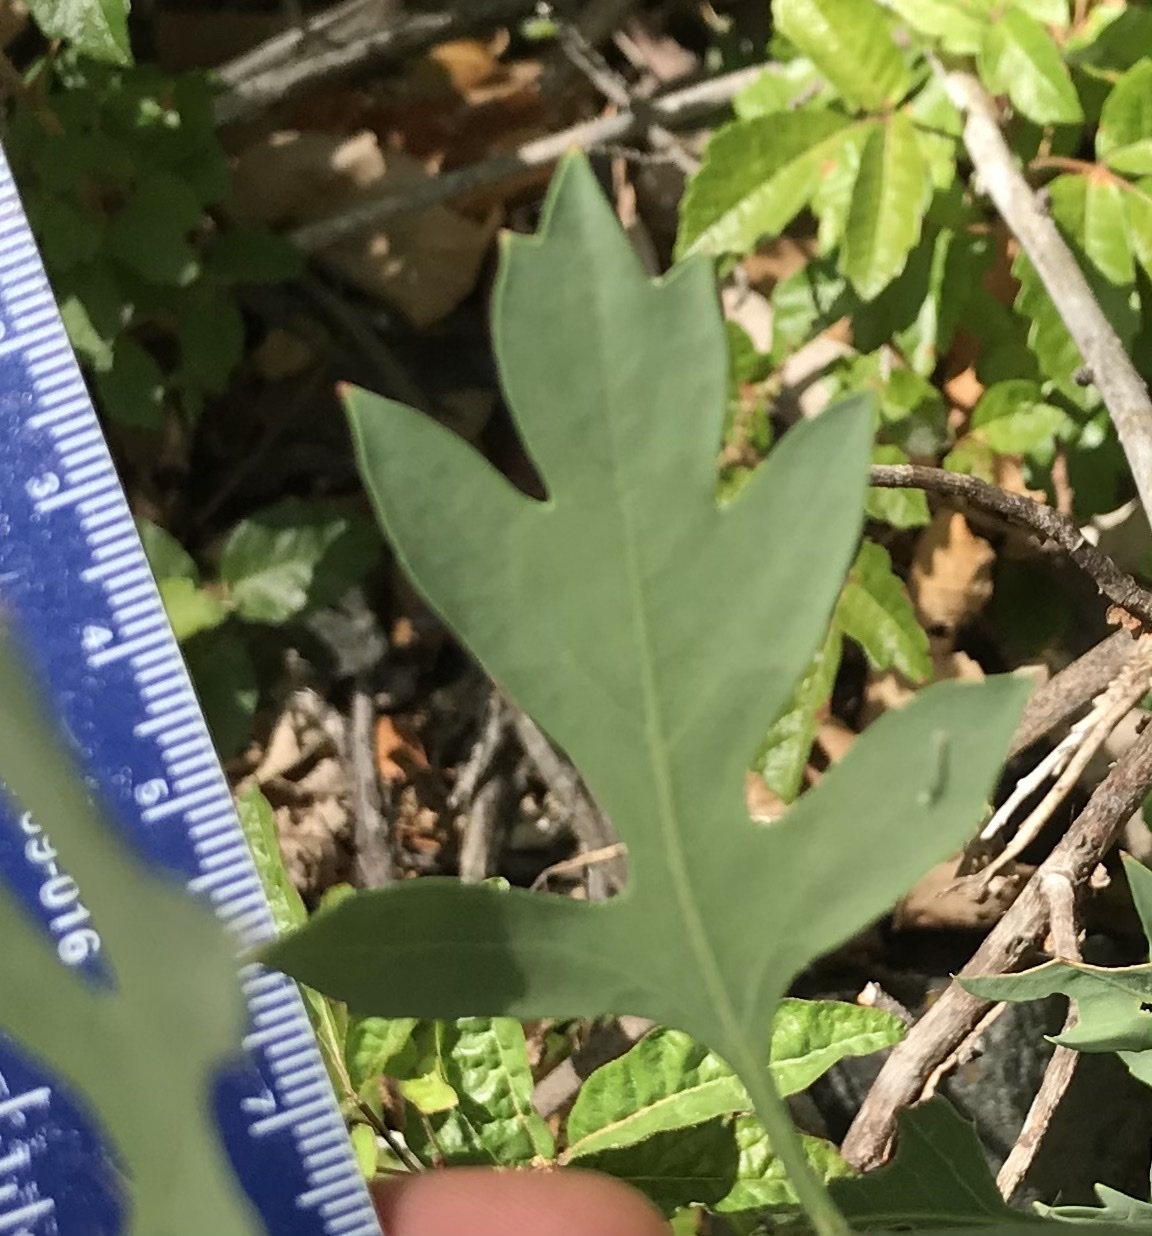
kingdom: Plantae
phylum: Tracheophyta
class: Magnoliopsida
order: Ranunculales
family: Papaveraceae
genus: Romneya
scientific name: Romneya coulteri
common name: California tree-poppy
